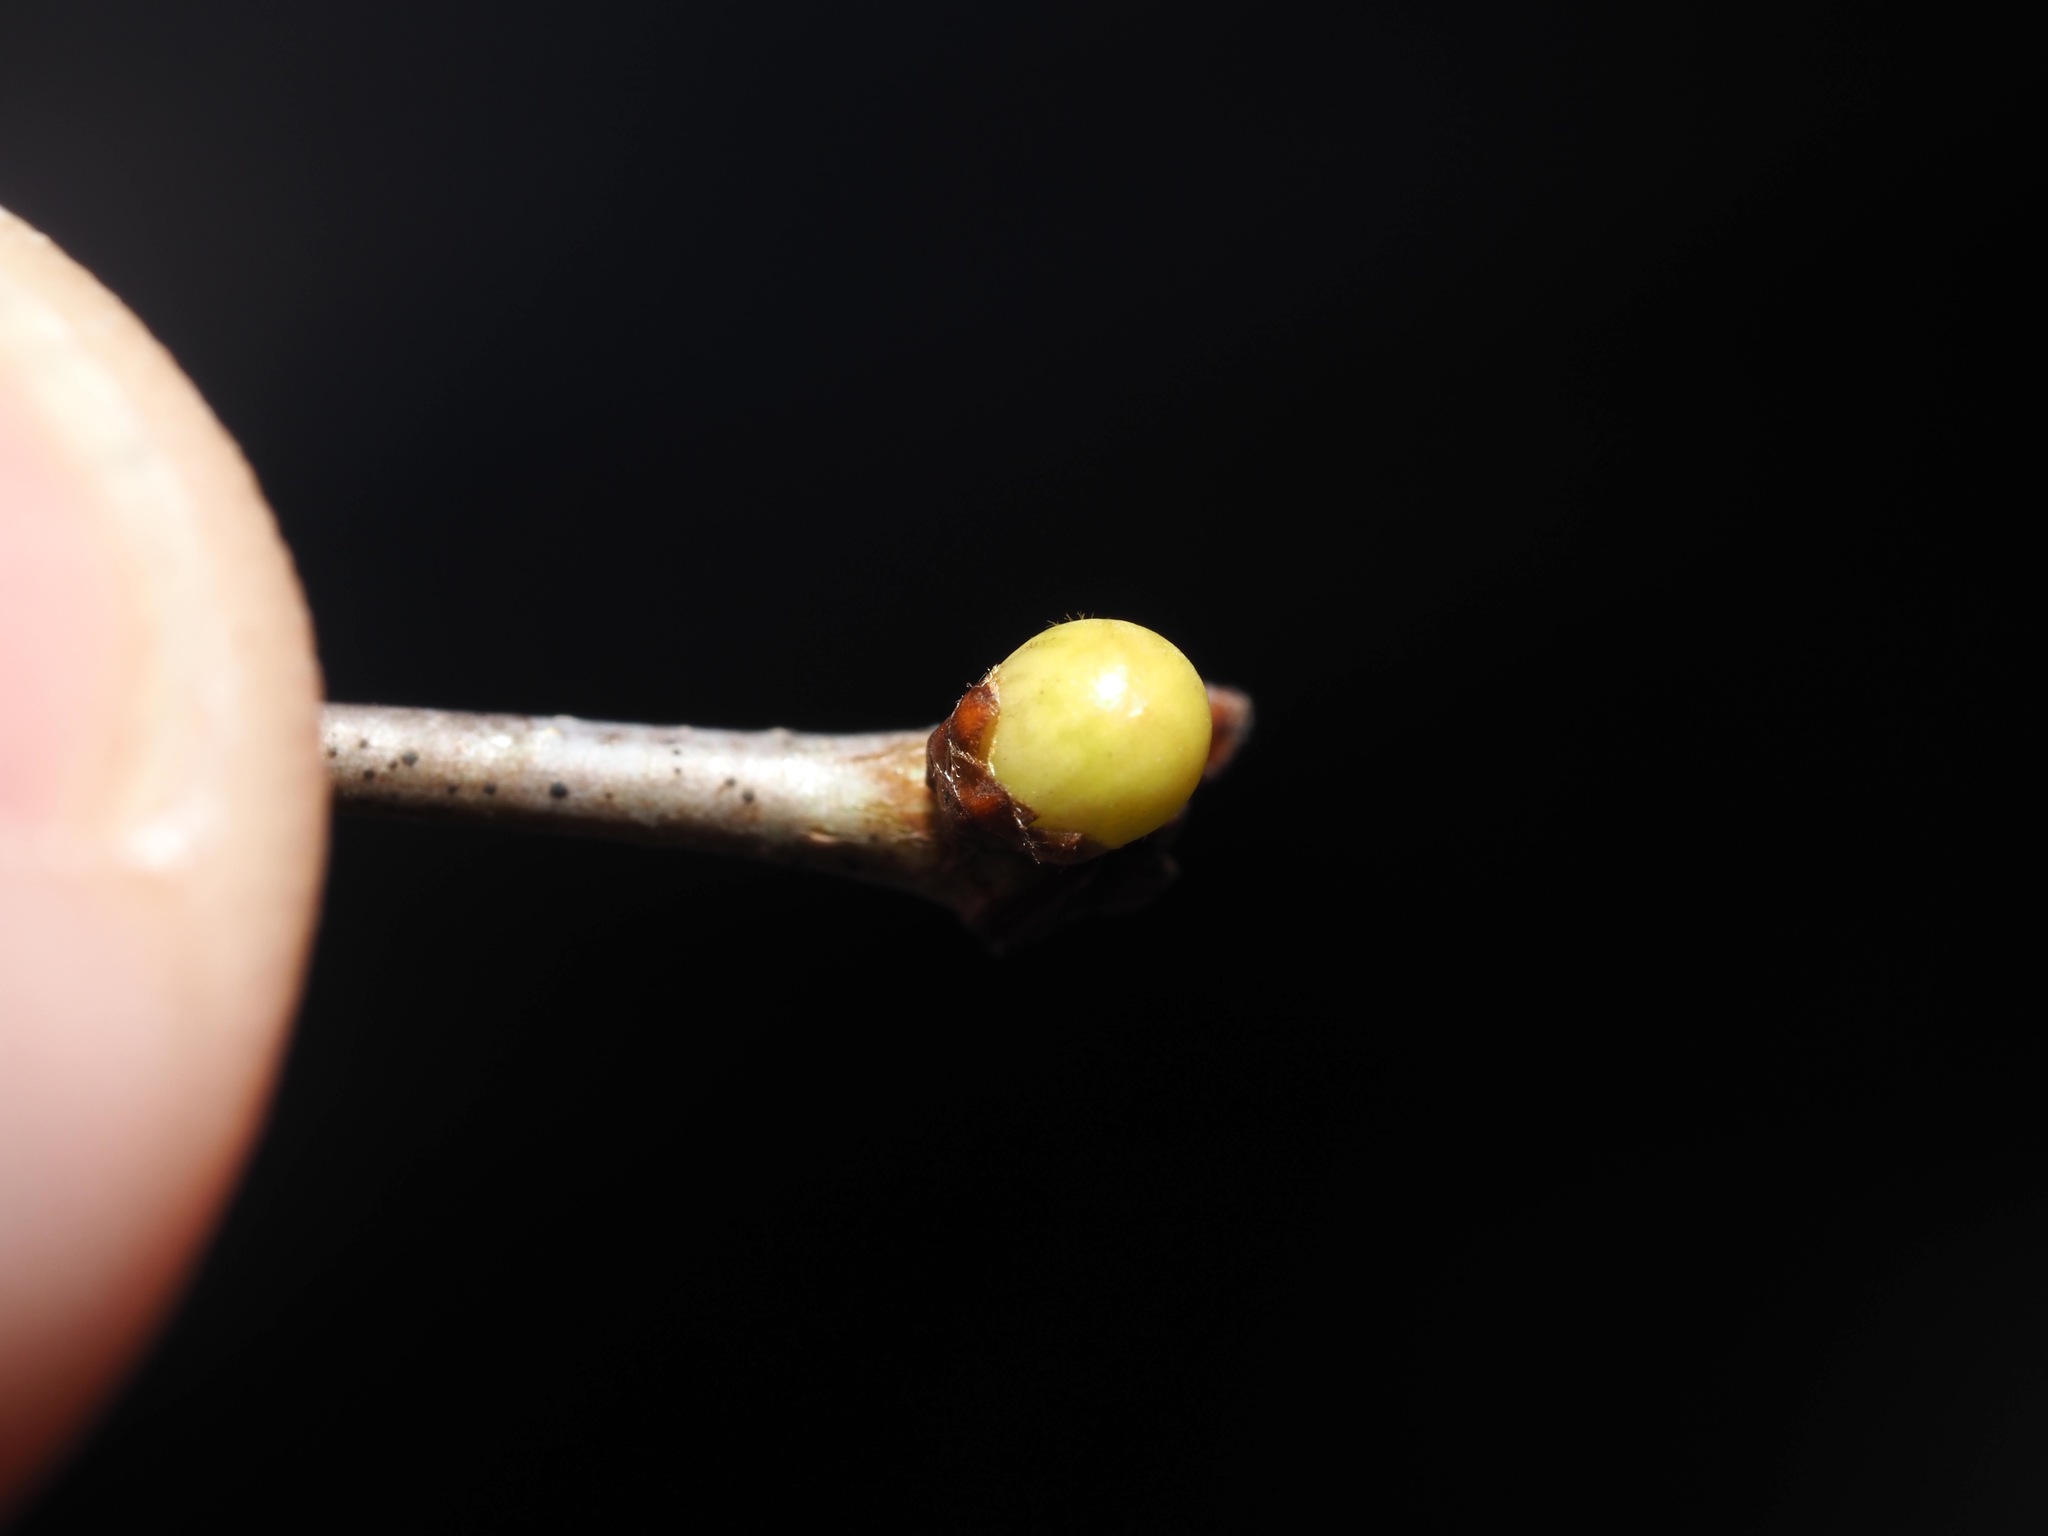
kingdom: Animalia
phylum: Arthropoda
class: Insecta
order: Hymenoptera
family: Cynipidae
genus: Neuroterus
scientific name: Neuroterus
